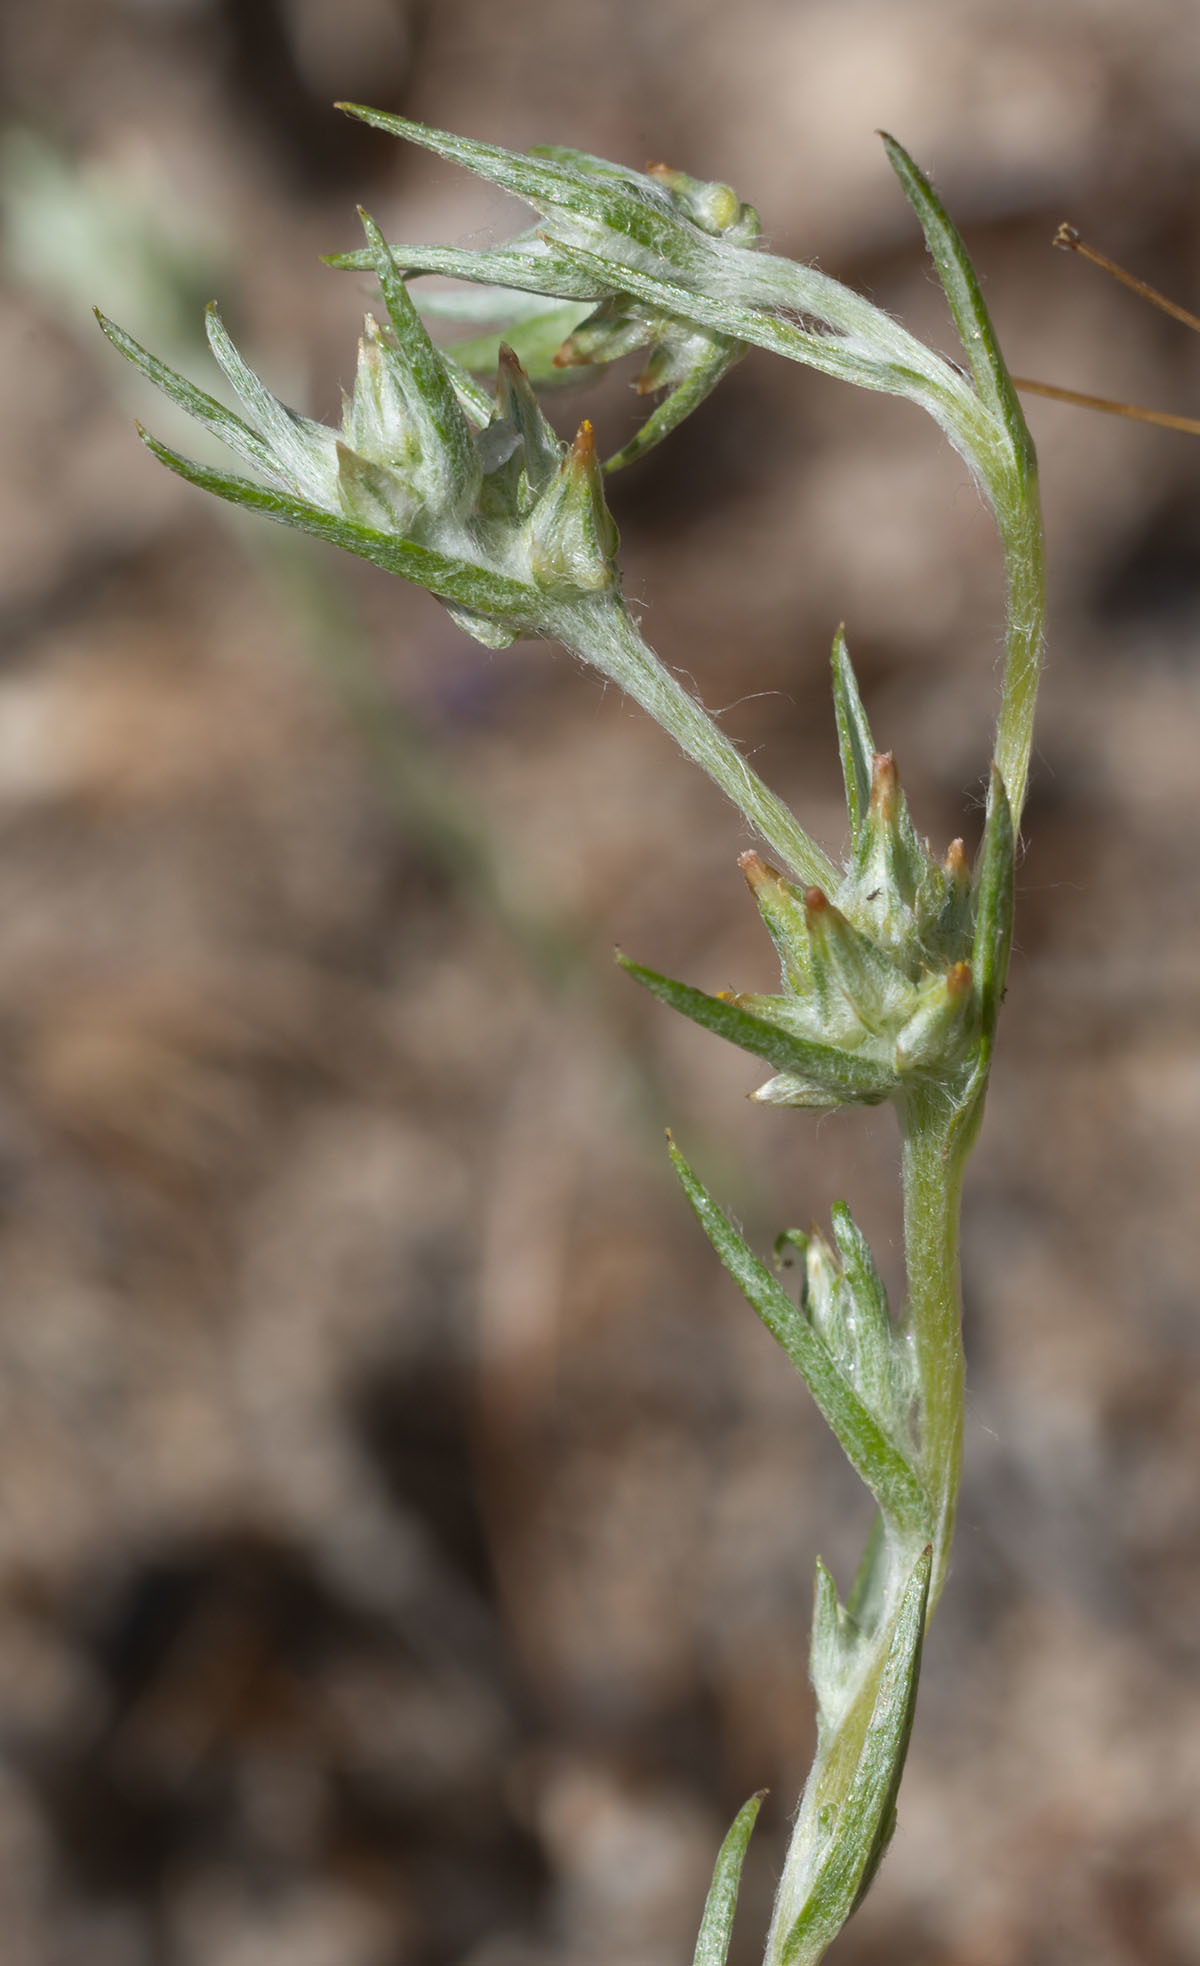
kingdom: Plantae
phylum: Tracheophyta
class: Magnoliopsida
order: Asterales
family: Asteraceae
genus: Logfia
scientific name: Logfia gallica
